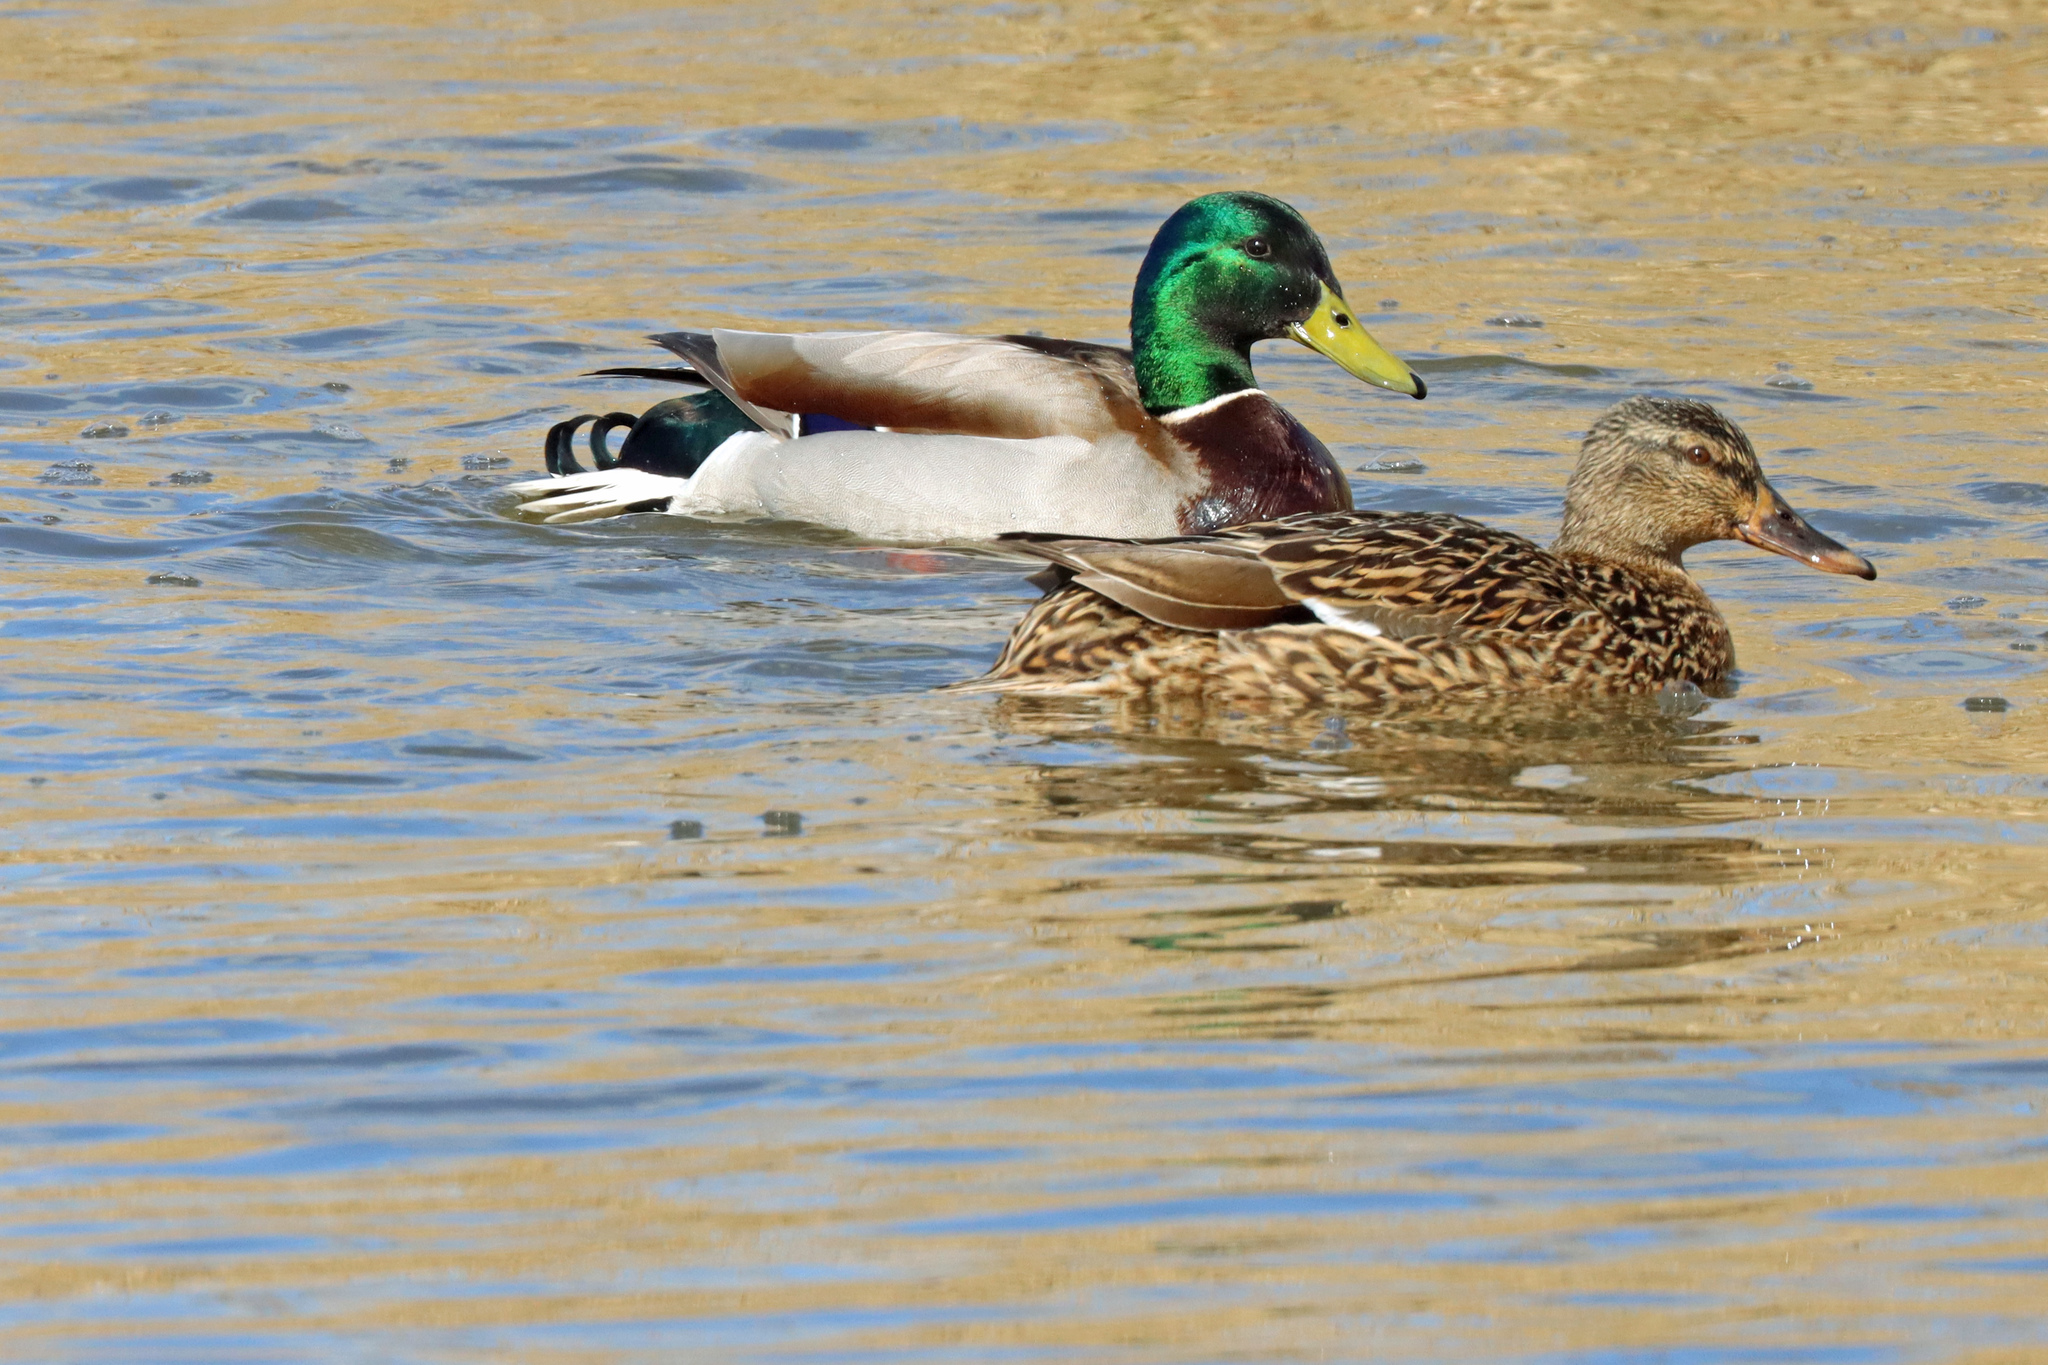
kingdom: Animalia
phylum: Chordata
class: Aves
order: Anseriformes
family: Anatidae
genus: Anas
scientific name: Anas platyrhynchos
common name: Mallard
